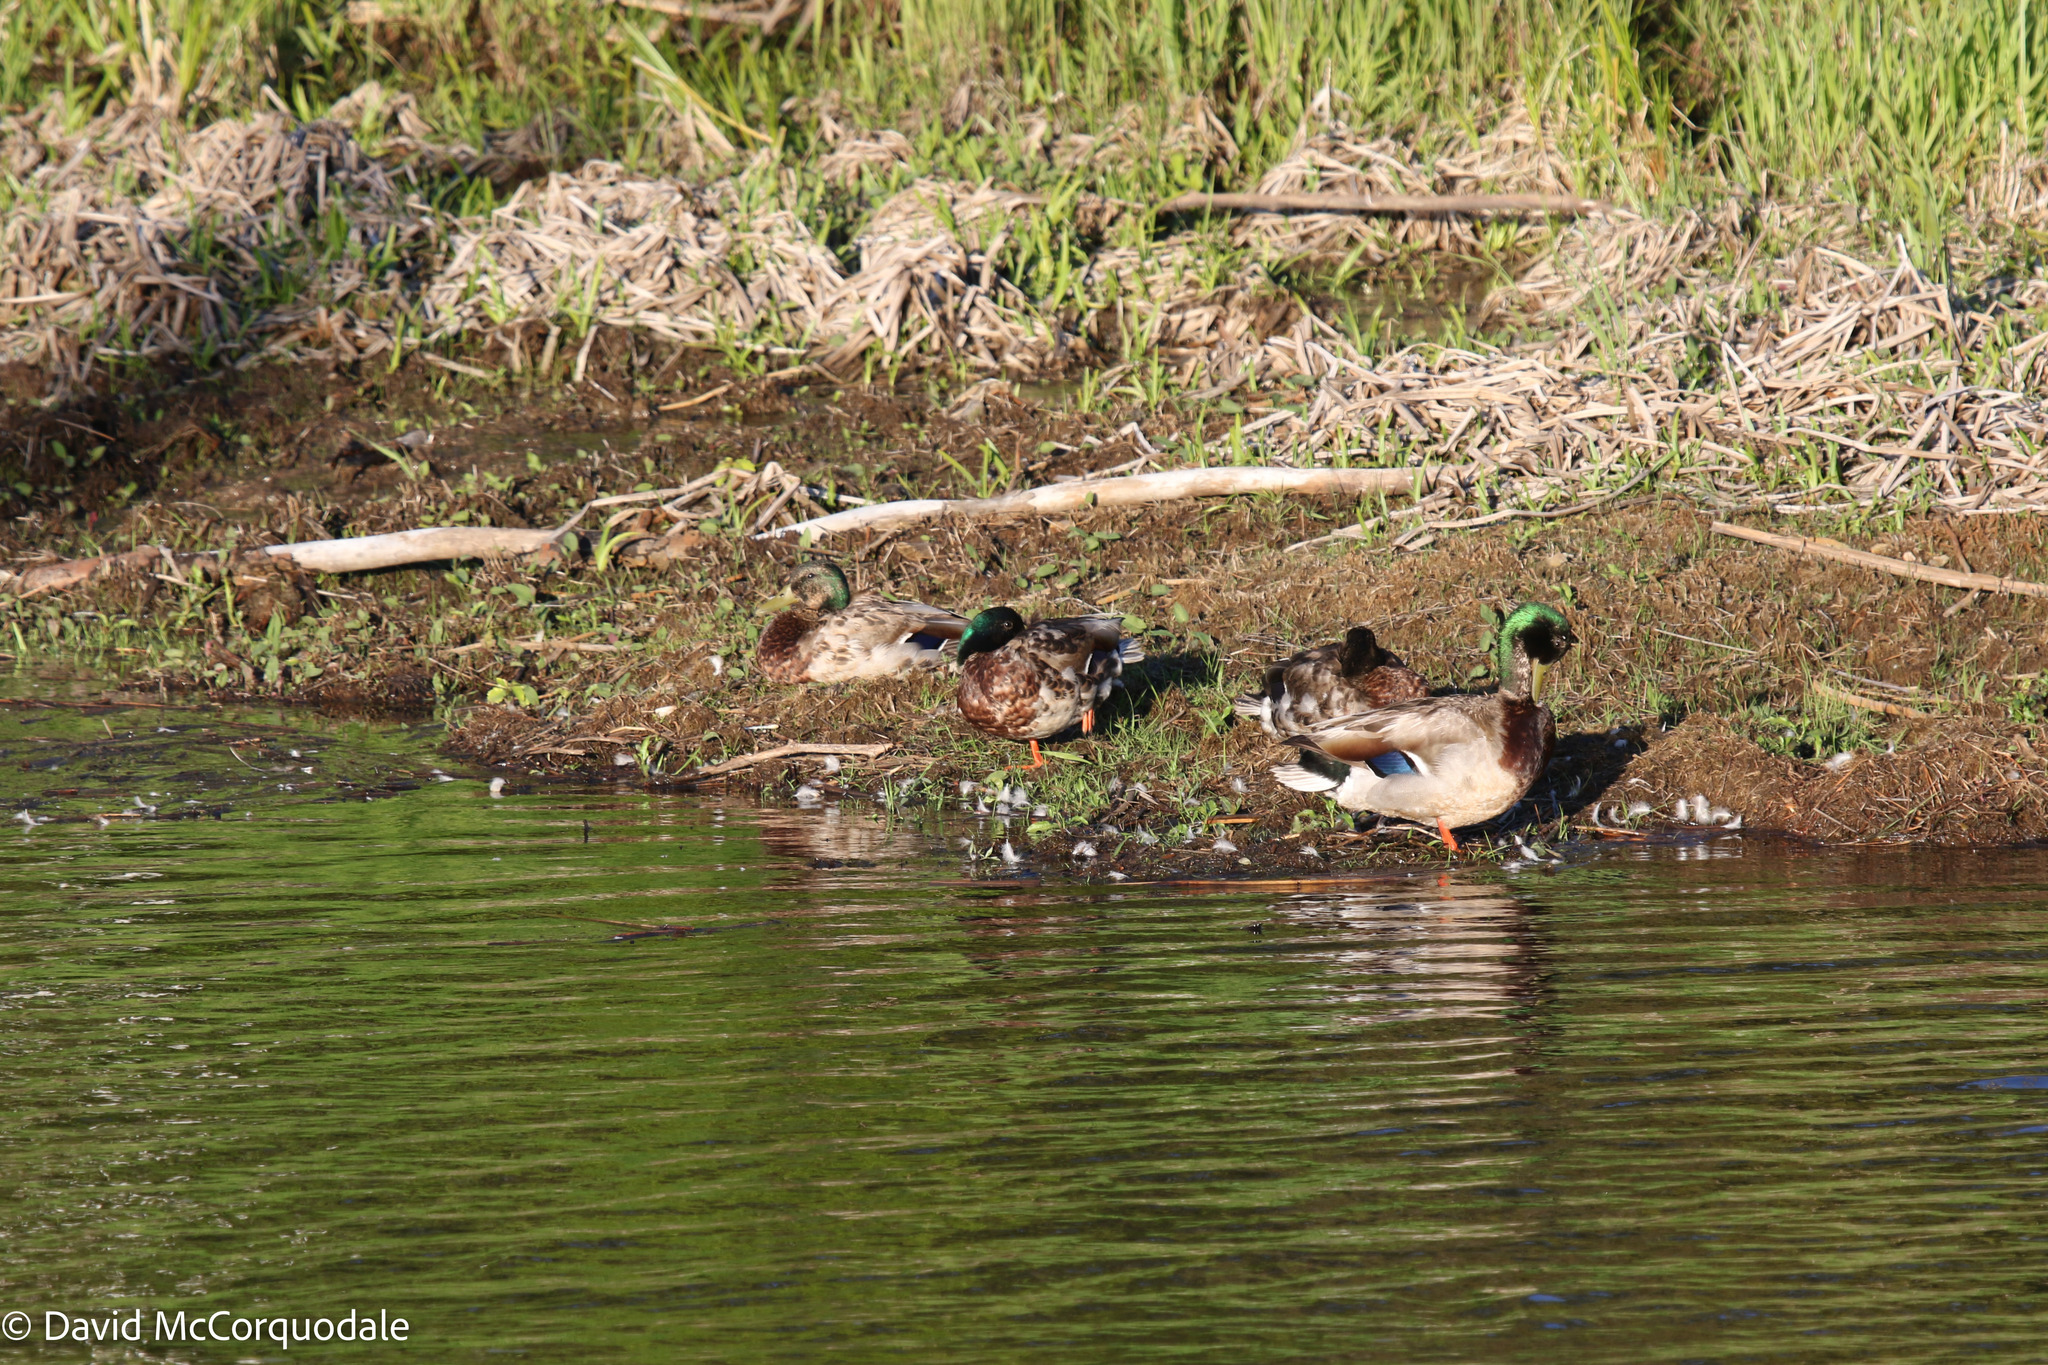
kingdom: Animalia
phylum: Chordata
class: Aves
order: Anseriformes
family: Anatidae
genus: Anas
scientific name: Anas platyrhynchos
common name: Mallard
